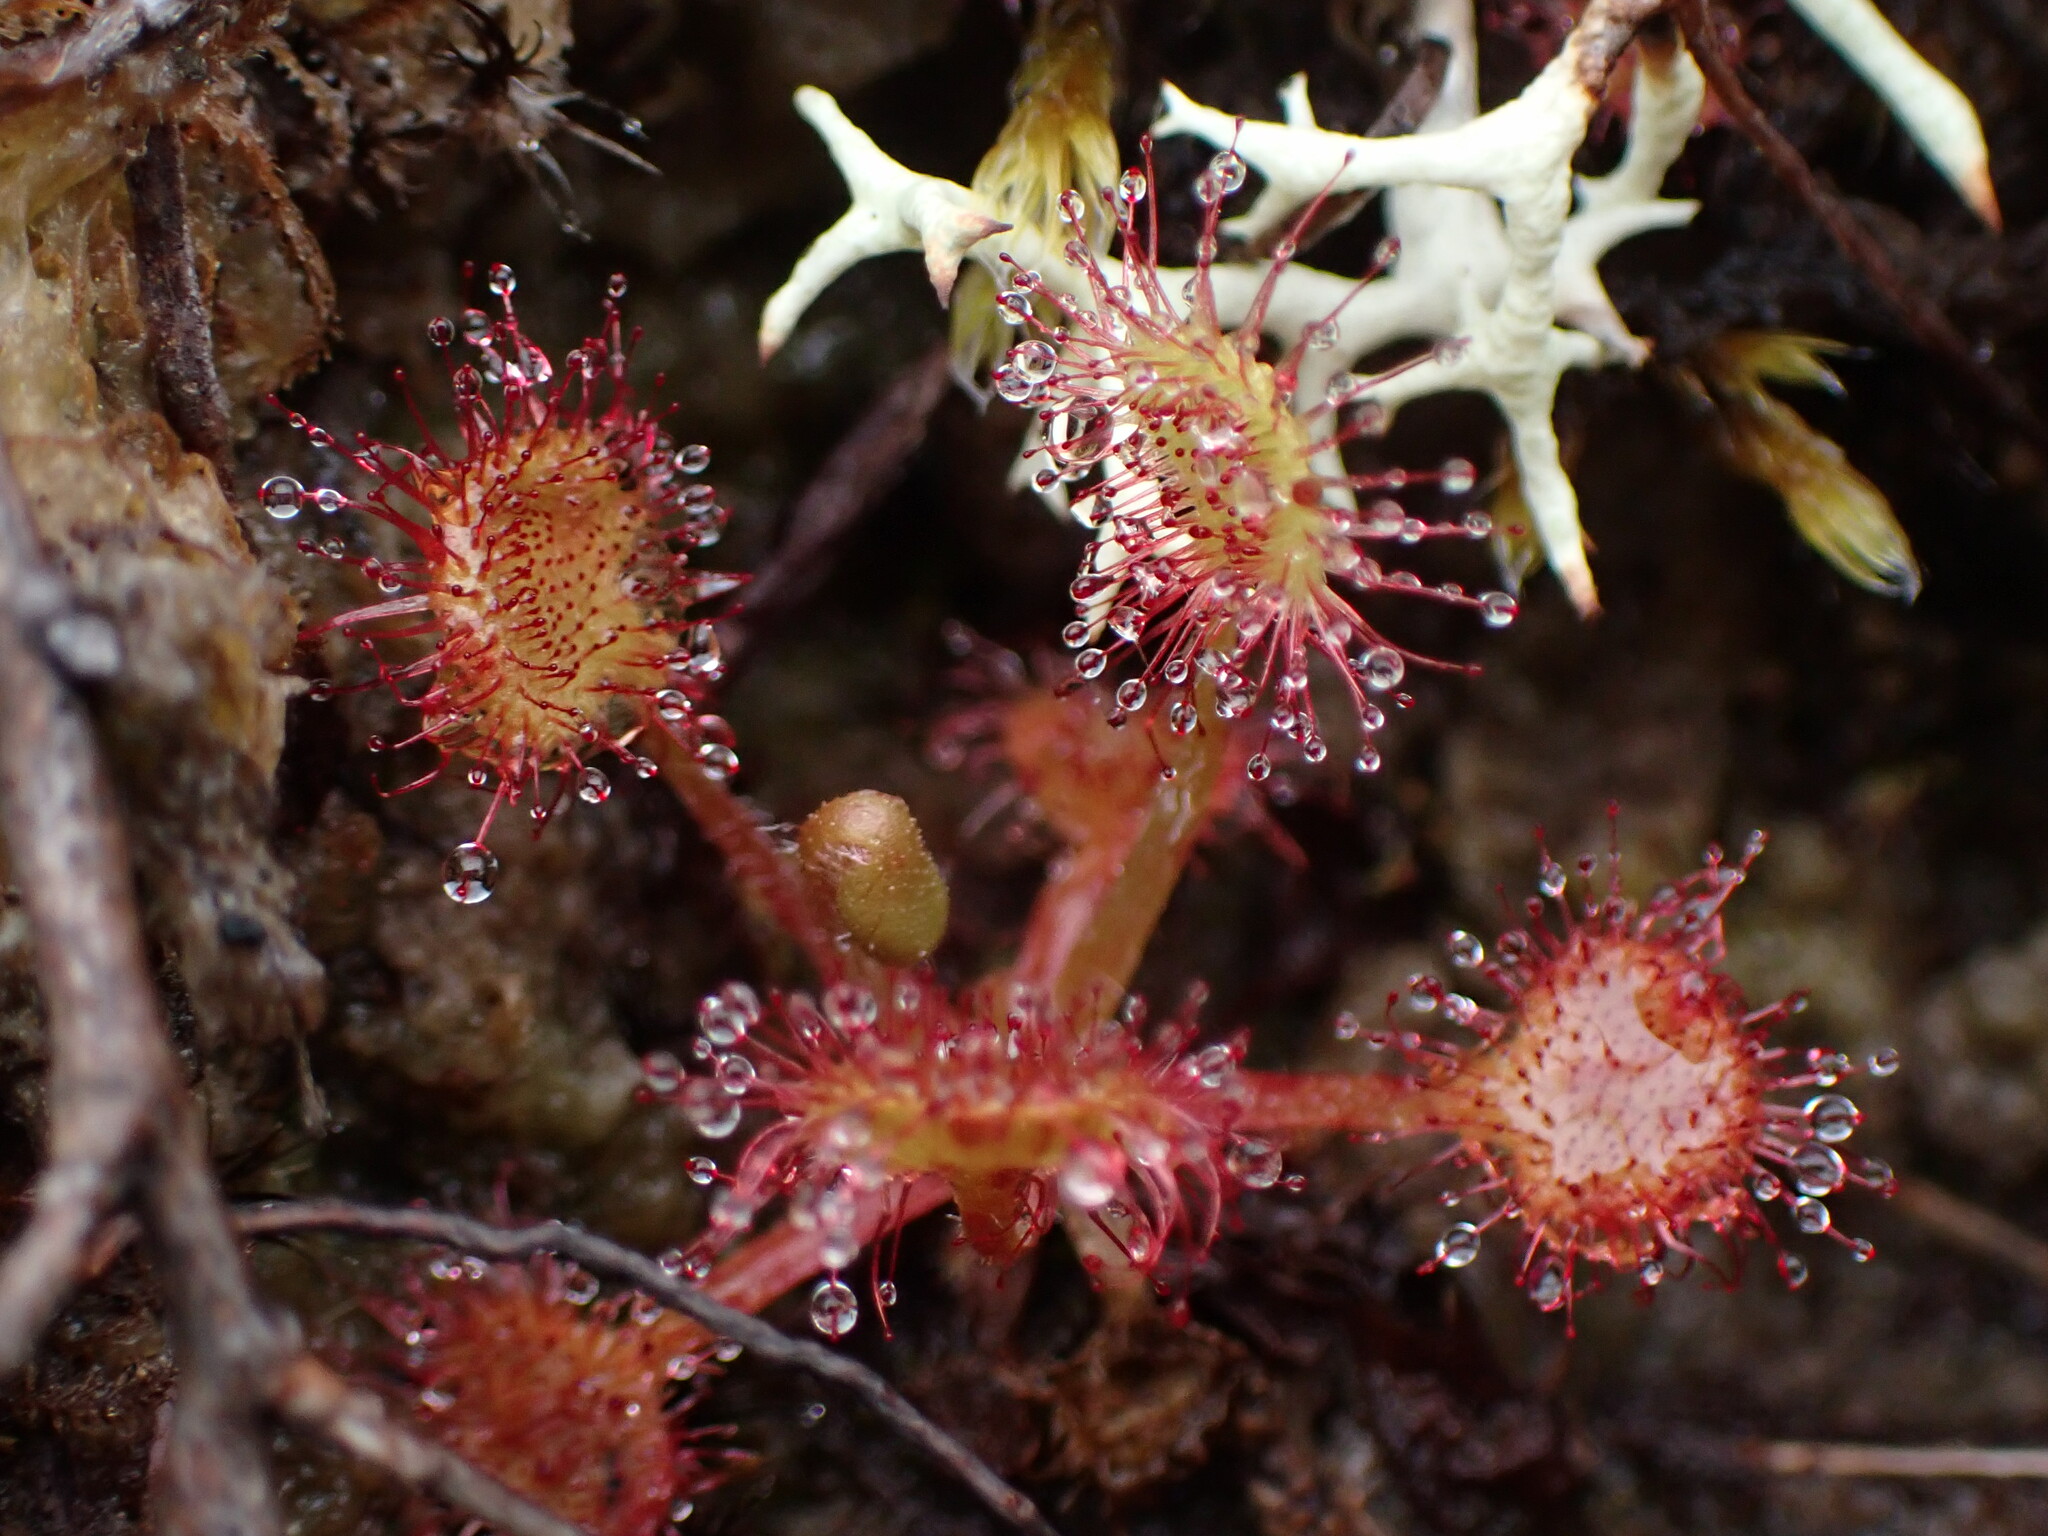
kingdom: Plantae
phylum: Tracheophyta
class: Magnoliopsida
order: Caryophyllales
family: Droseraceae
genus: Drosera
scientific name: Drosera rotundifolia
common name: Round-leaved sundew
